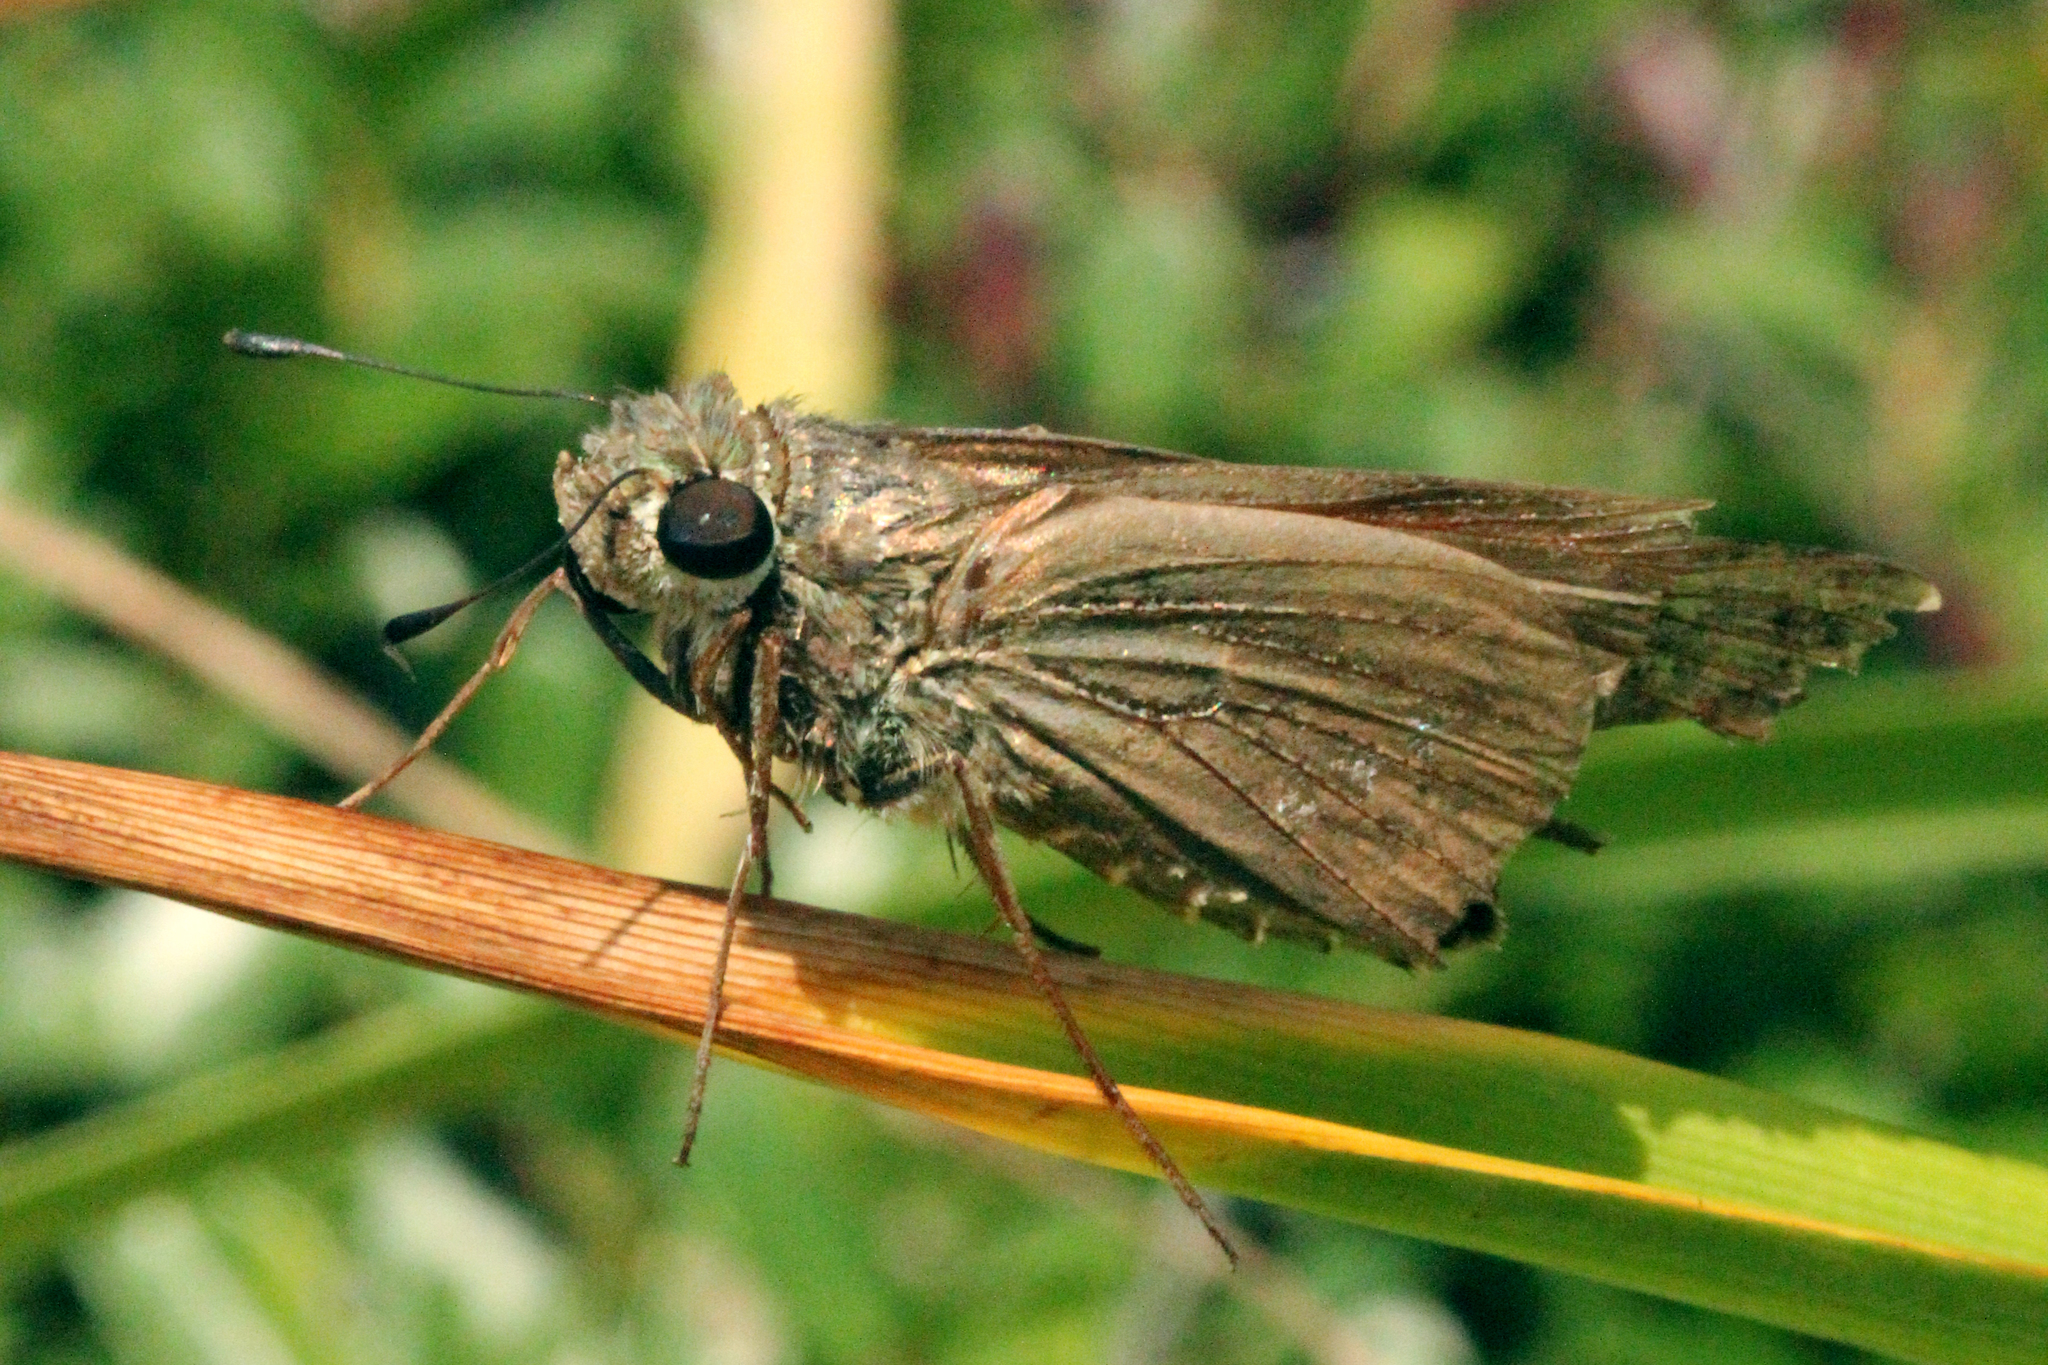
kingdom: Animalia
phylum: Arthropoda
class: Insecta
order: Lepidoptera
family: Hesperiidae
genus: Calpodes
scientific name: Calpodes ethlius
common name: Brazilian skipper
